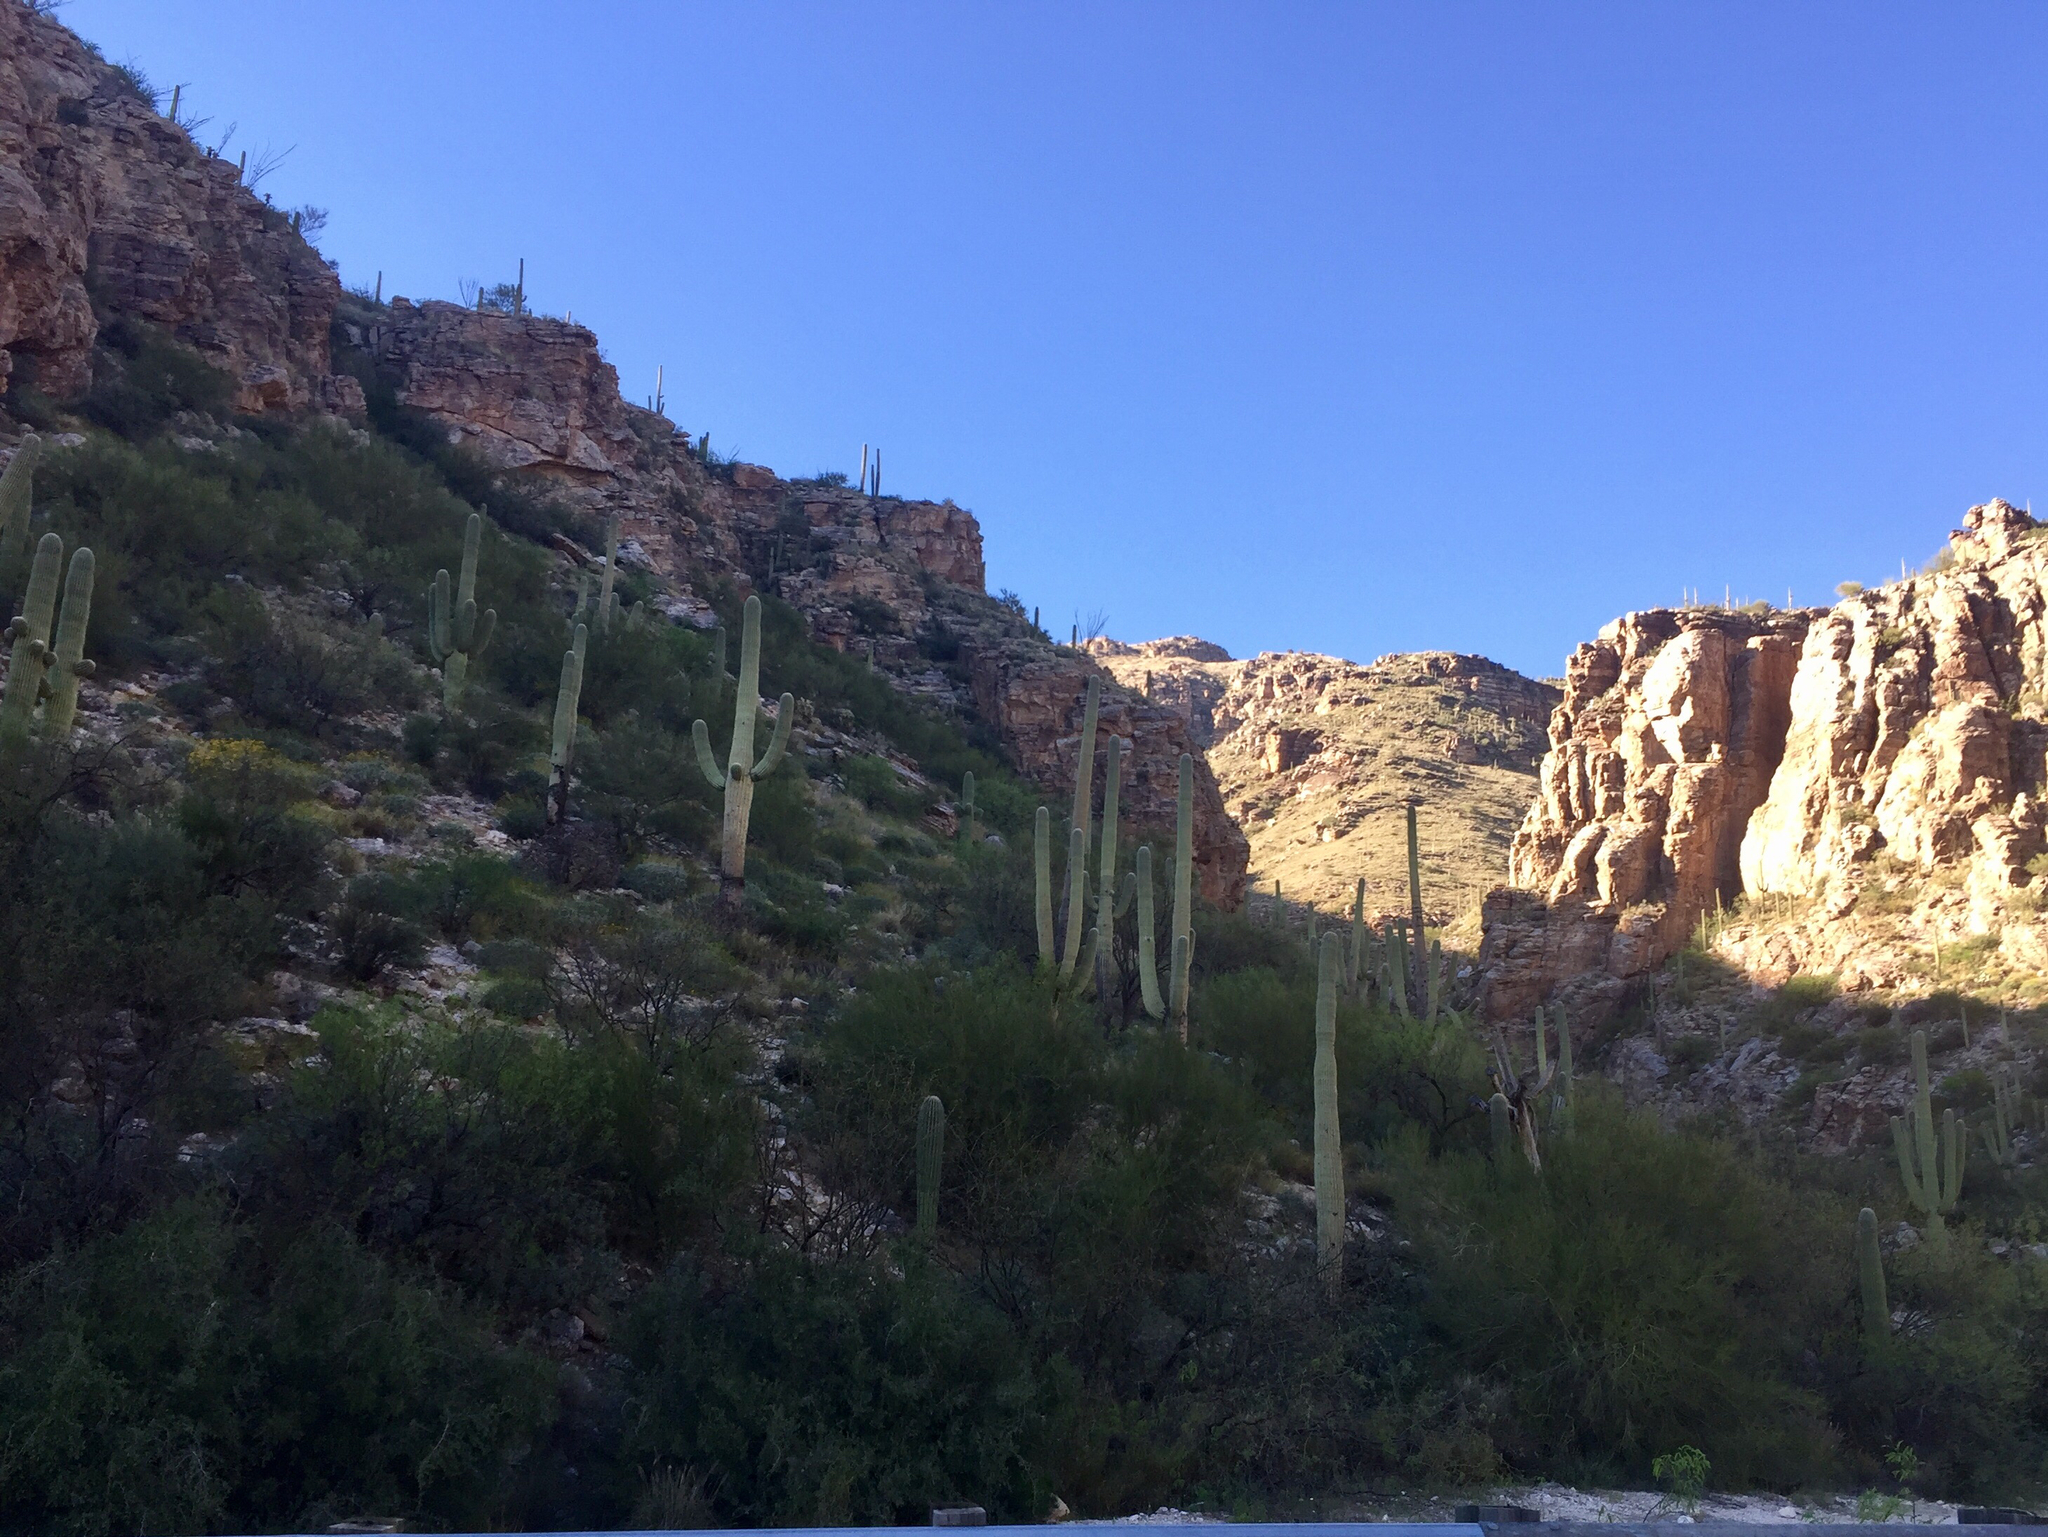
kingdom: Plantae
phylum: Tracheophyta
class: Magnoliopsida
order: Caryophyllales
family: Cactaceae
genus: Carnegiea
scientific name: Carnegiea gigantea
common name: Saguaro
